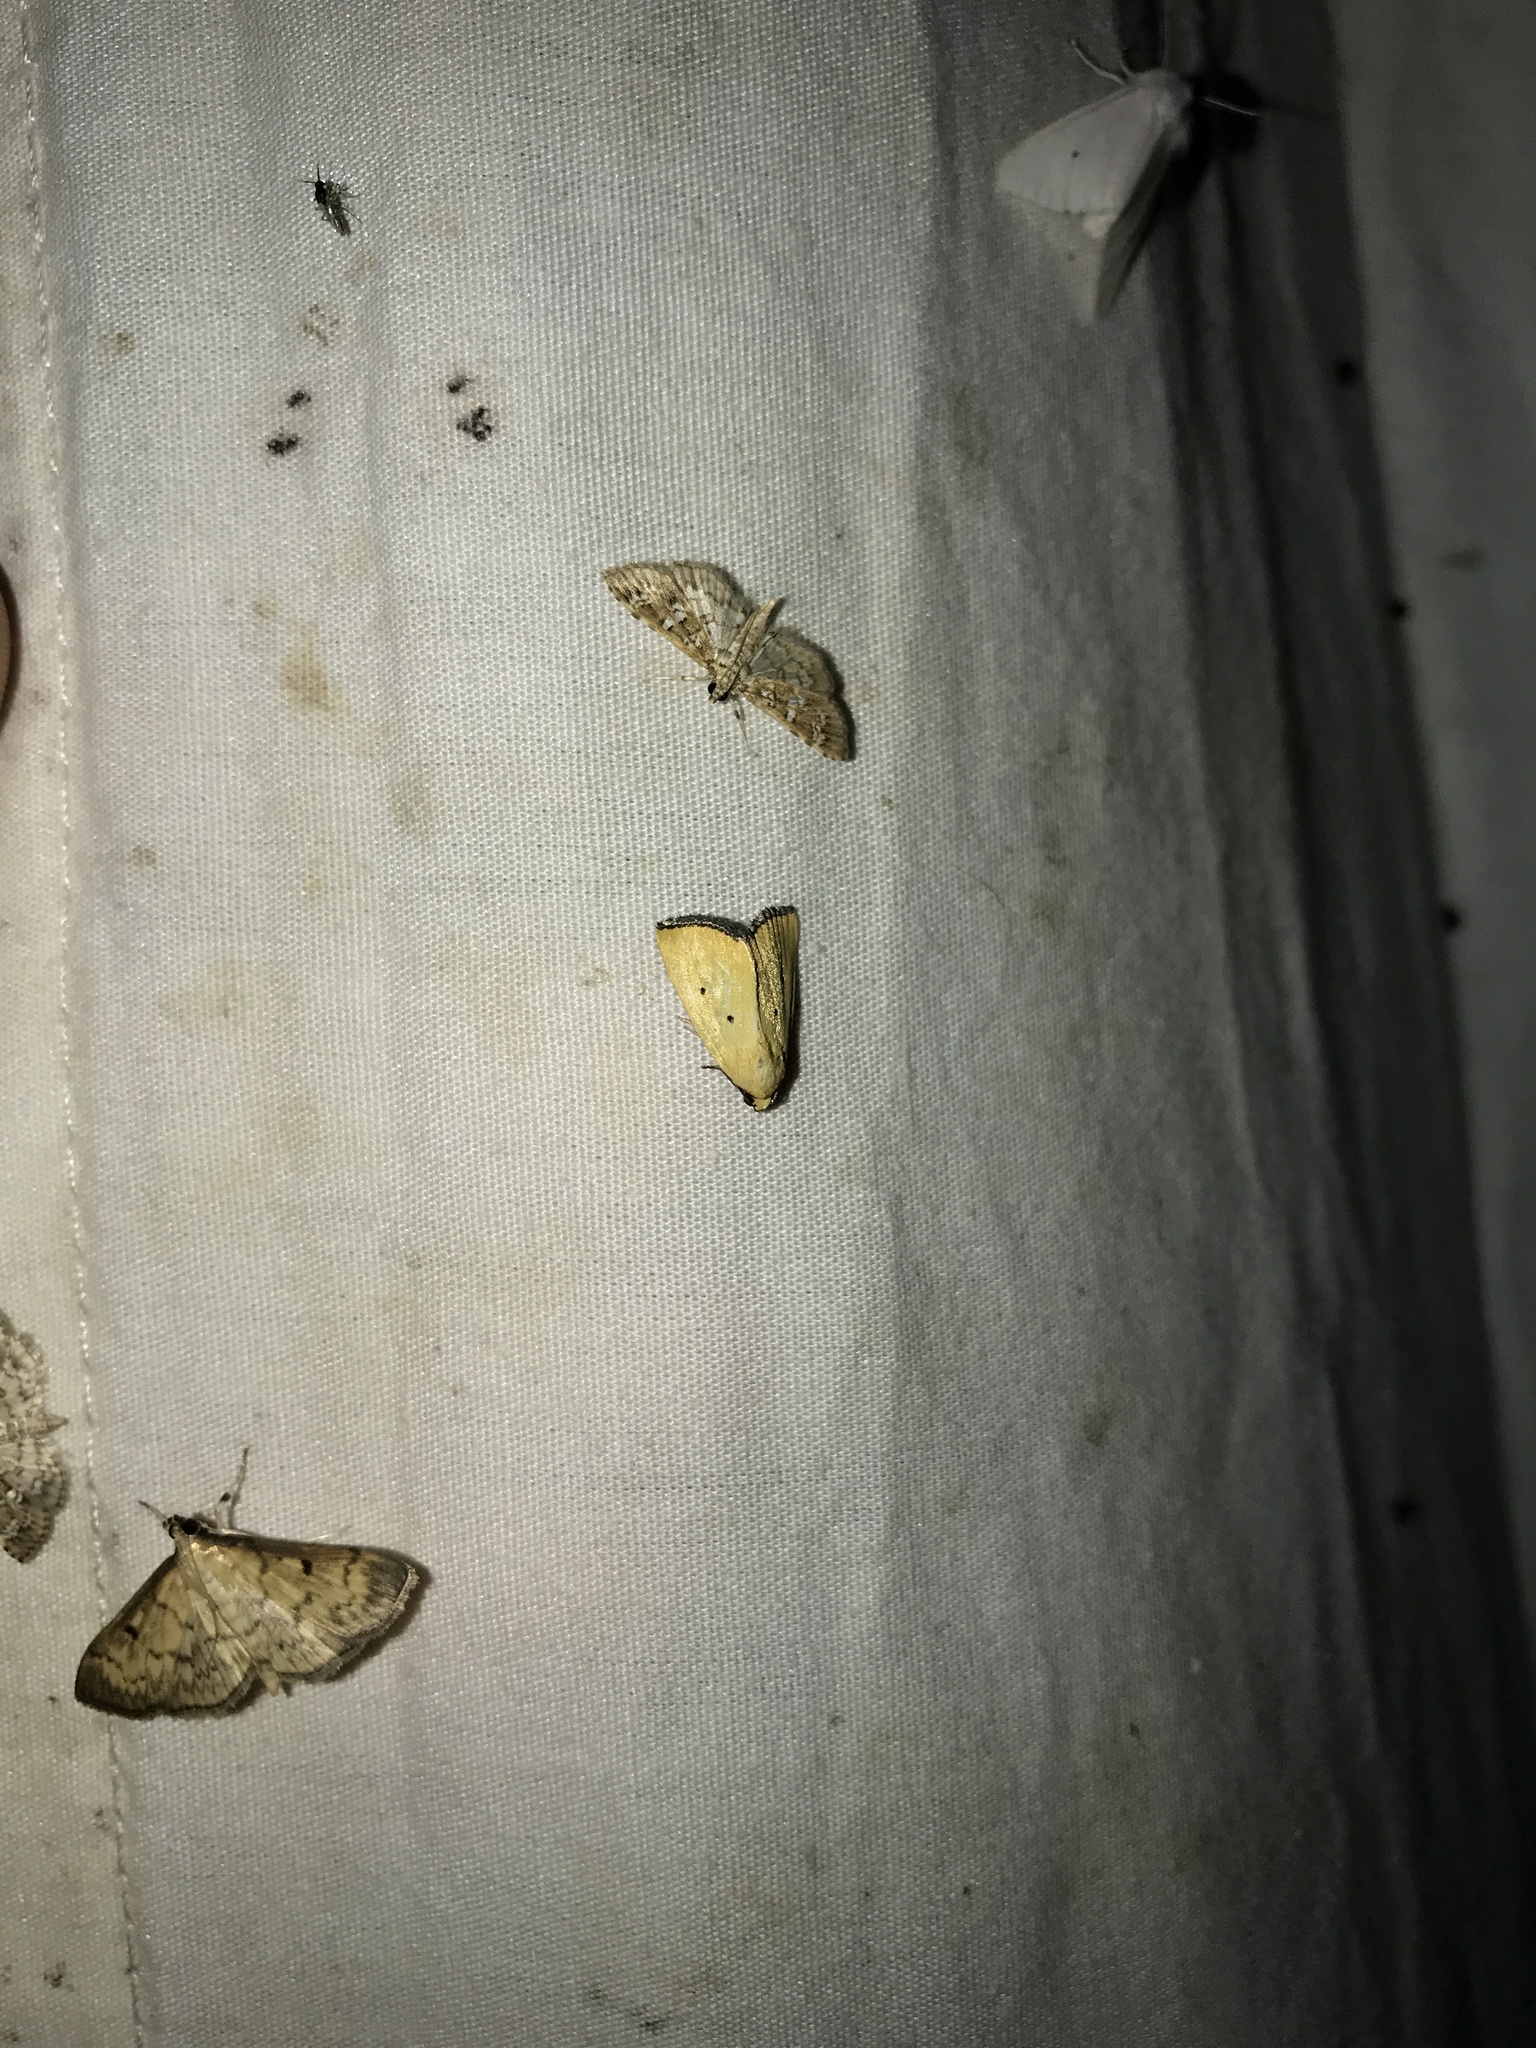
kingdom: Animalia
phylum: Arthropoda
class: Insecta
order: Lepidoptera
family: Noctuidae
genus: Marimatha
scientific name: Marimatha nigrofimbria
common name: Black-bordered lemon moth
